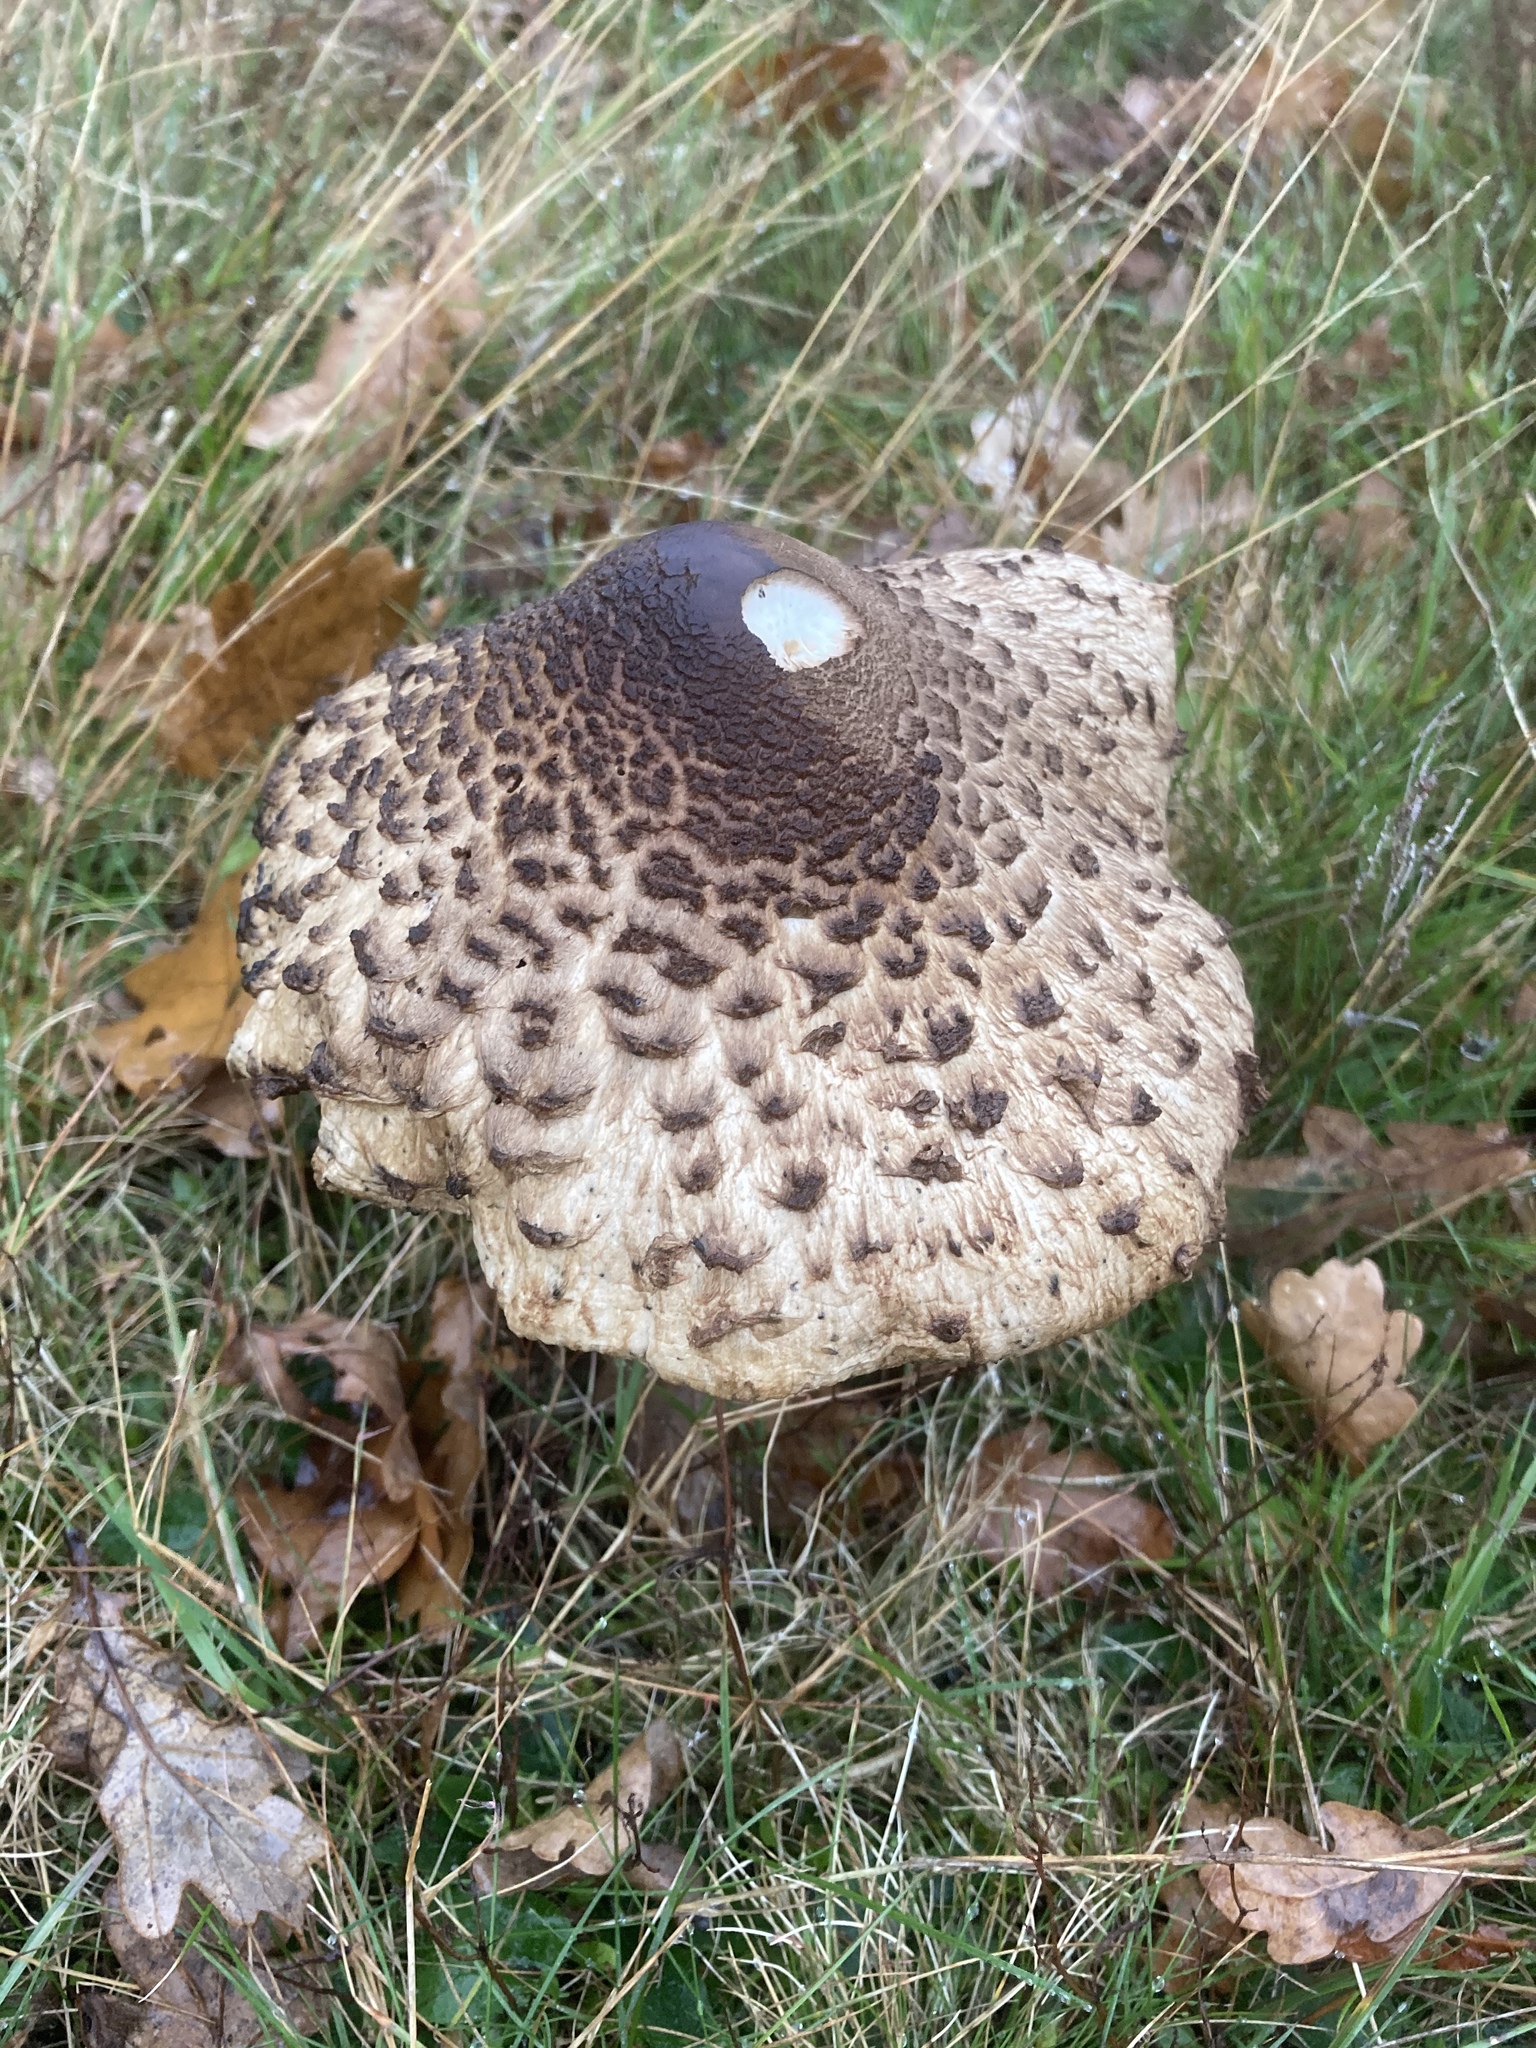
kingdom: Fungi
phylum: Basidiomycota
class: Agaricomycetes
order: Agaricales
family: Agaricaceae
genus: Macrolepiota
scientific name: Macrolepiota procera
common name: Parasol
